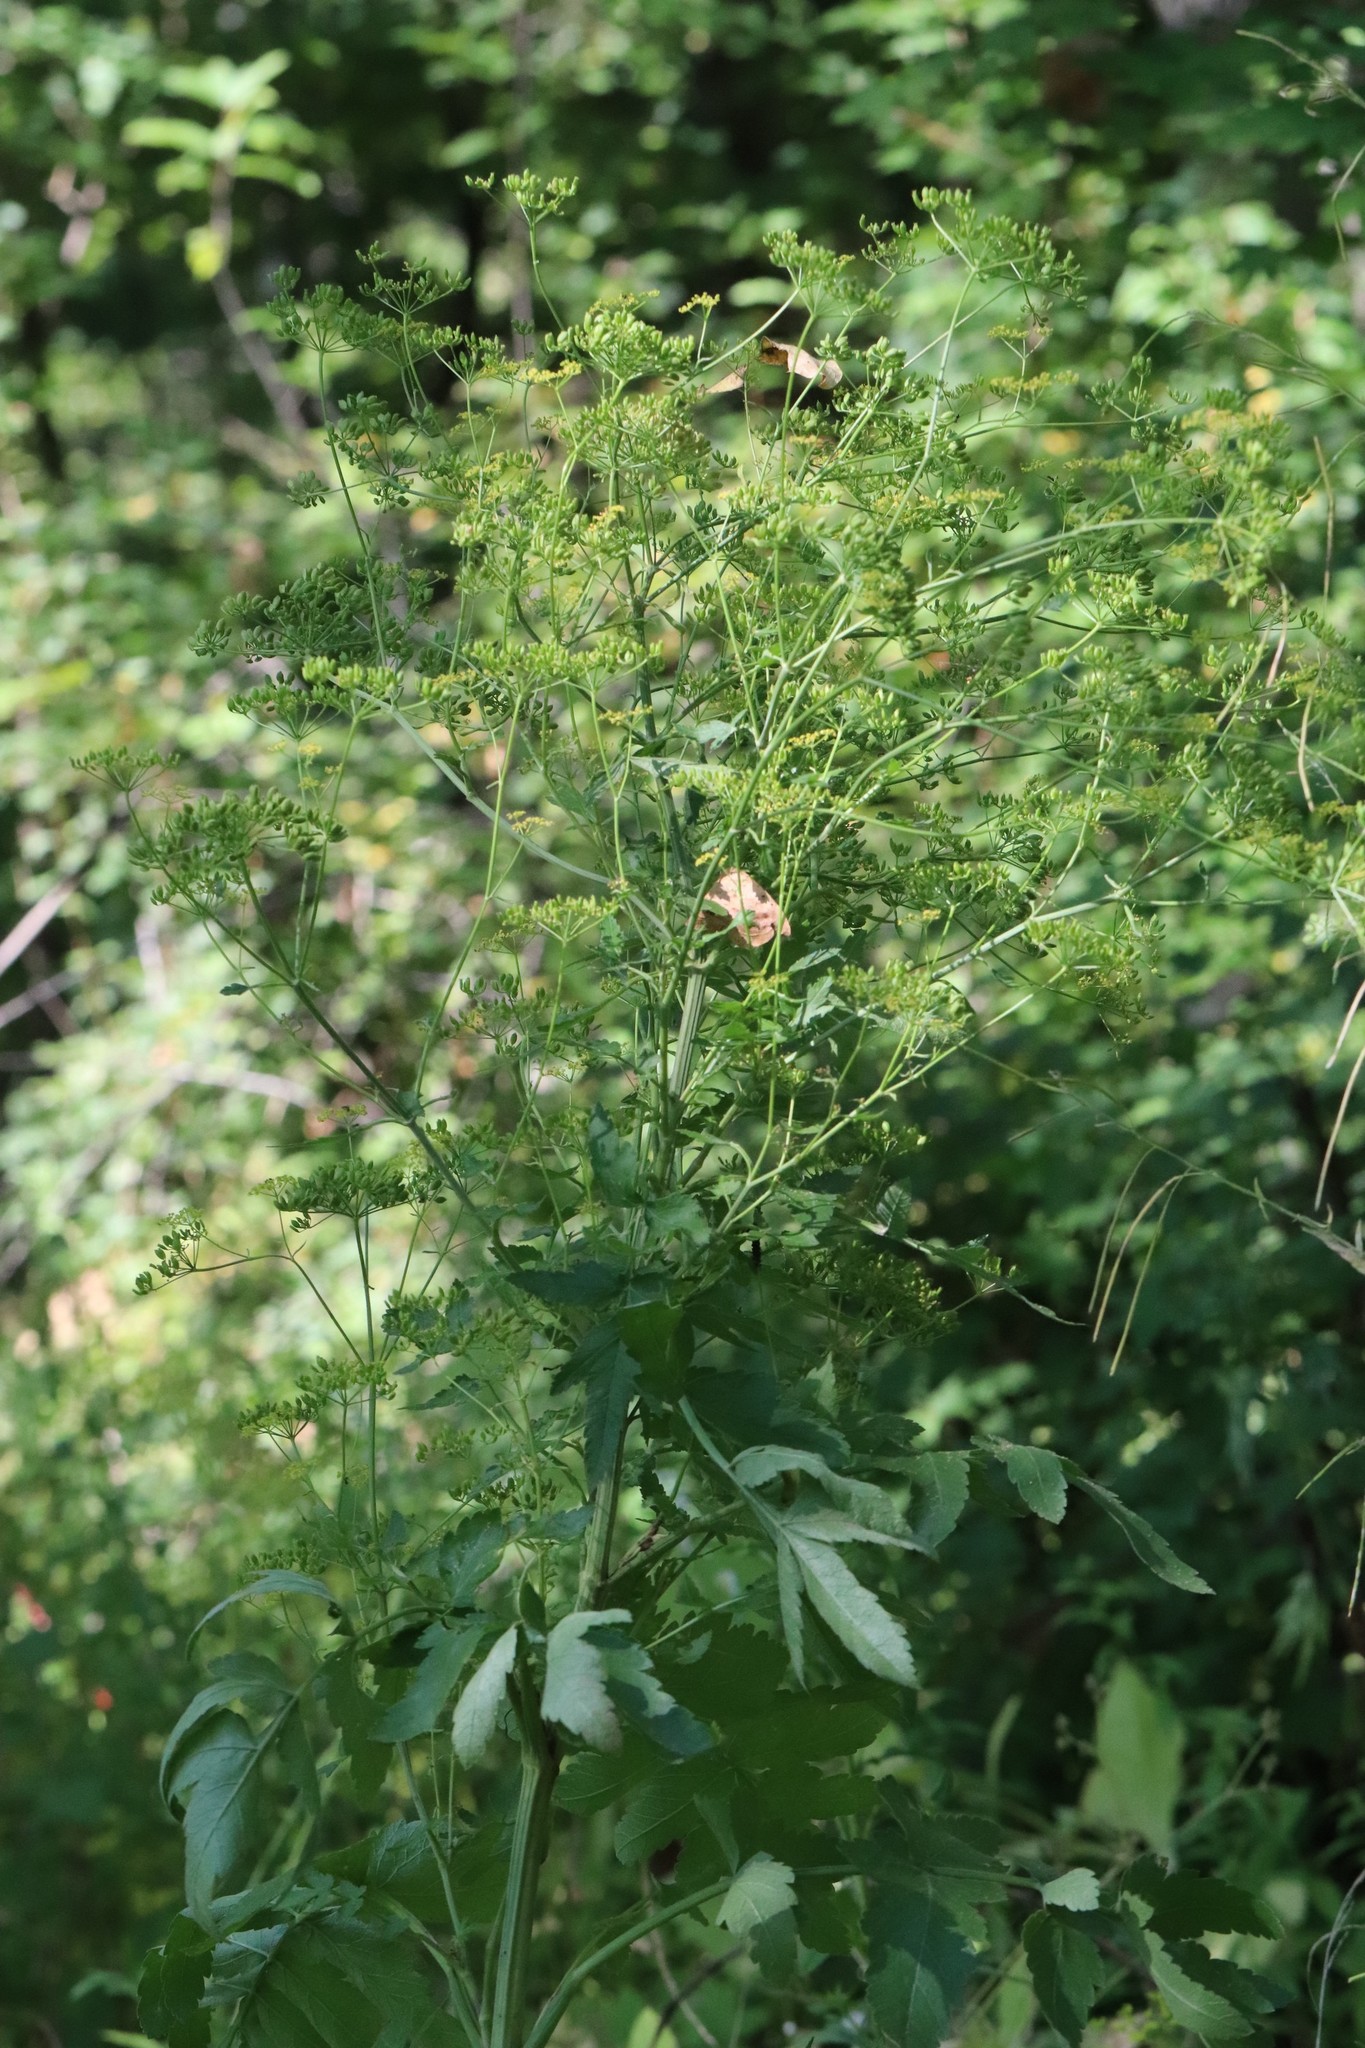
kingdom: Plantae
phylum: Tracheophyta
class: Magnoliopsida
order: Apiales
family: Apiaceae
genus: Pastinaca
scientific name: Pastinaca sativa
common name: Wild parsnip
